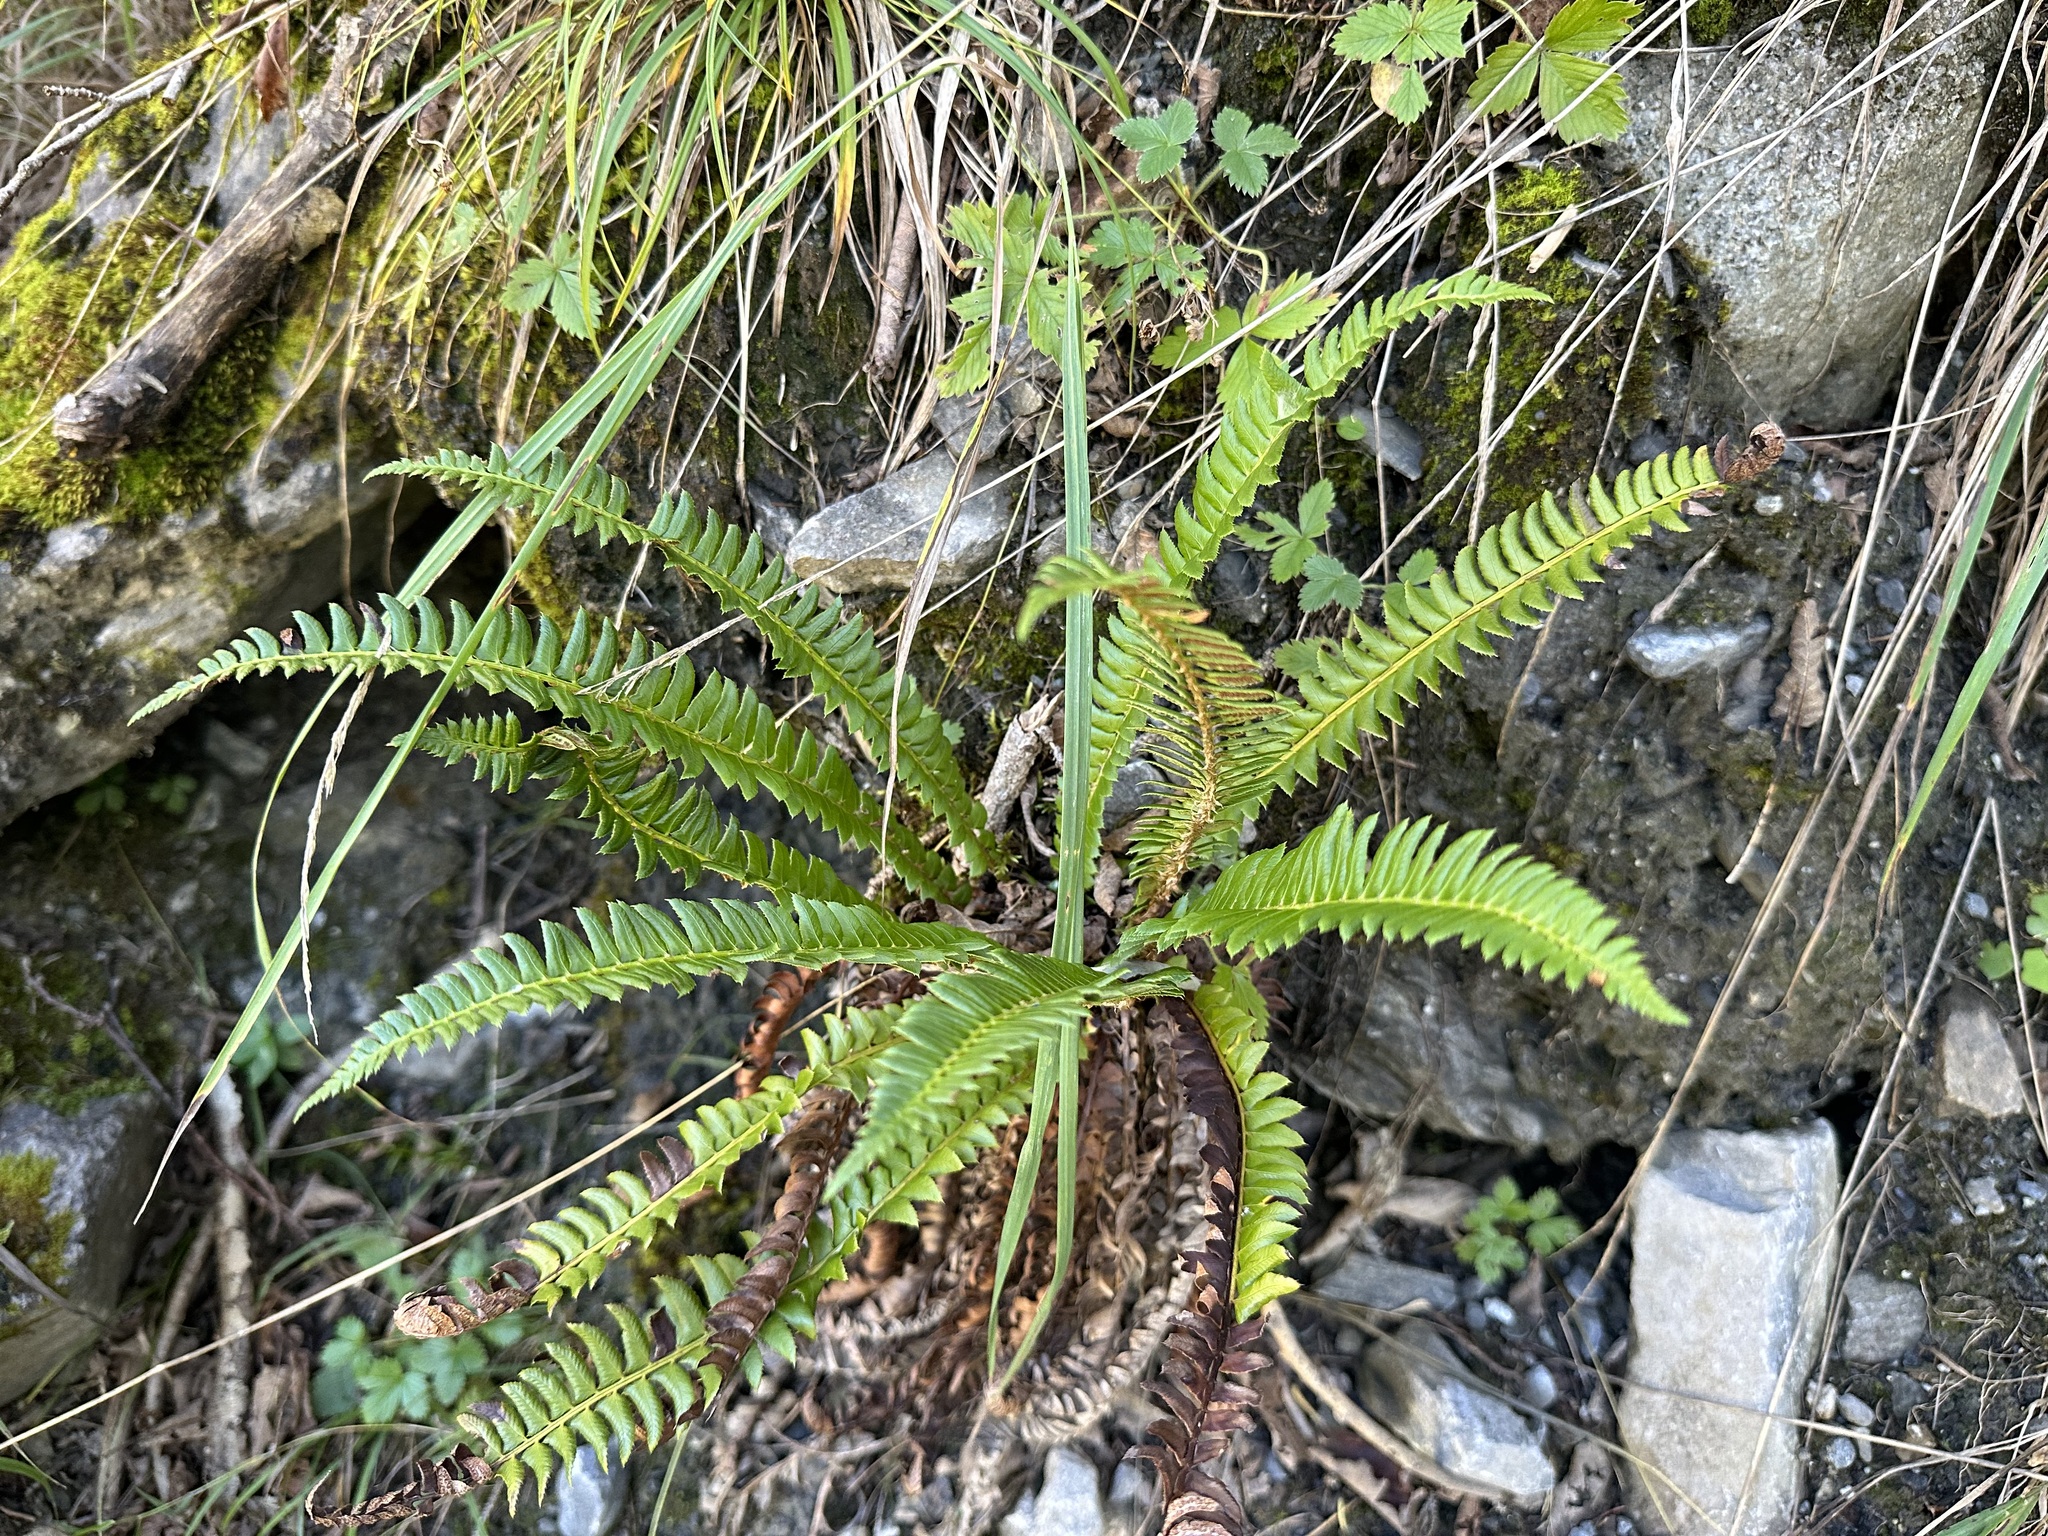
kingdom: Plantae
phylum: Tracheophyta
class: Polypodiopsida
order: Polypodiales
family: Dryopteridaceae
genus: Polystichum
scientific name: Polystichum lonchitis
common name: Holly fern
